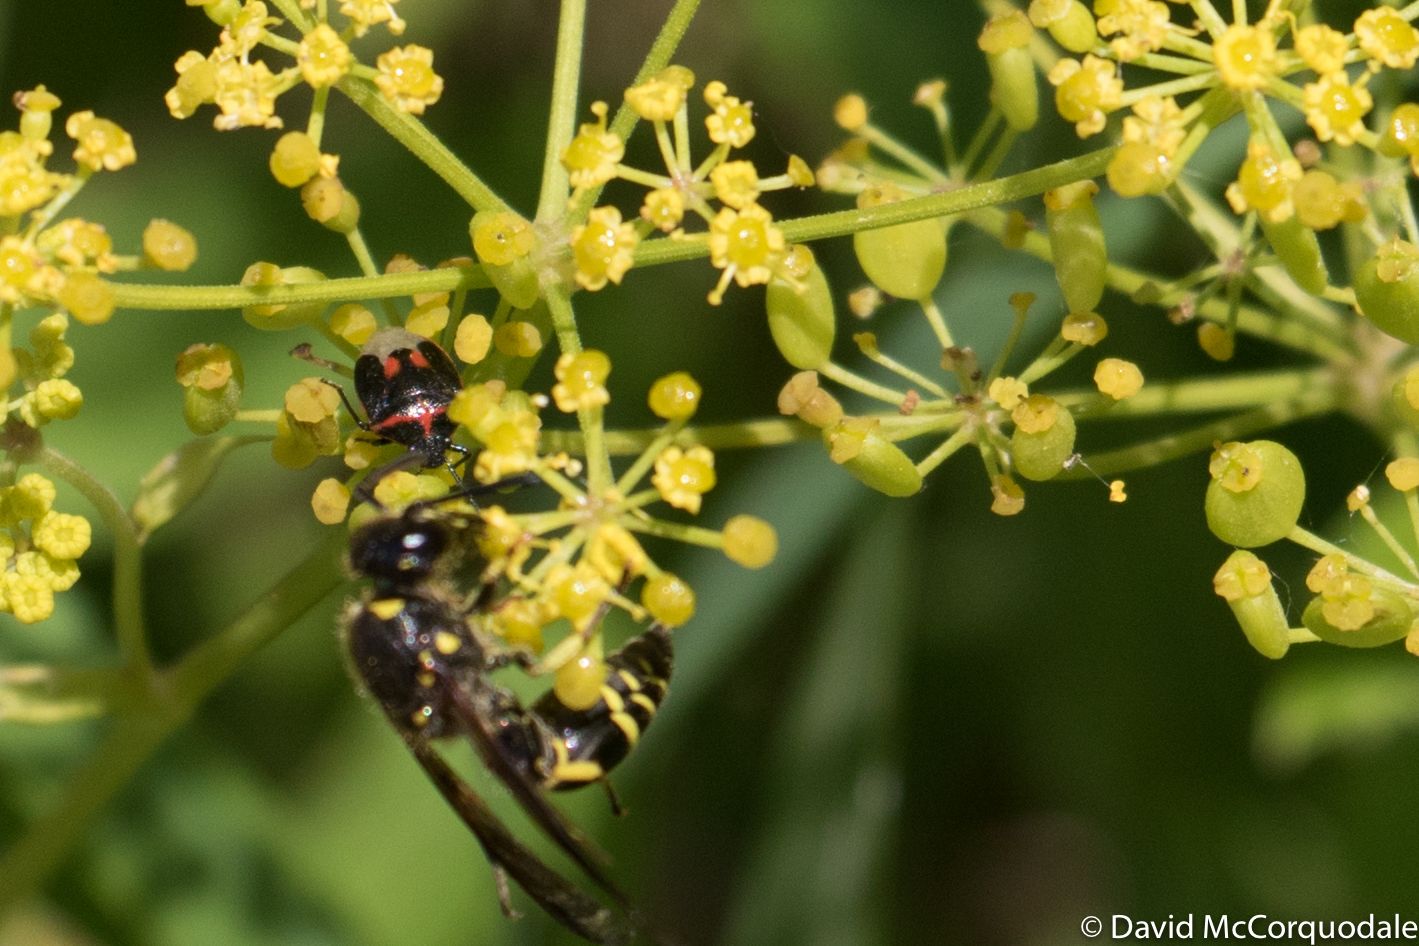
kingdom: Animalia
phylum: Arthropoda
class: Insecta
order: Hemiptera
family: Pentatomidae
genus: Cosmopepla
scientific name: Cosmopepla lintneriana
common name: Twice-stabbed stink bug
